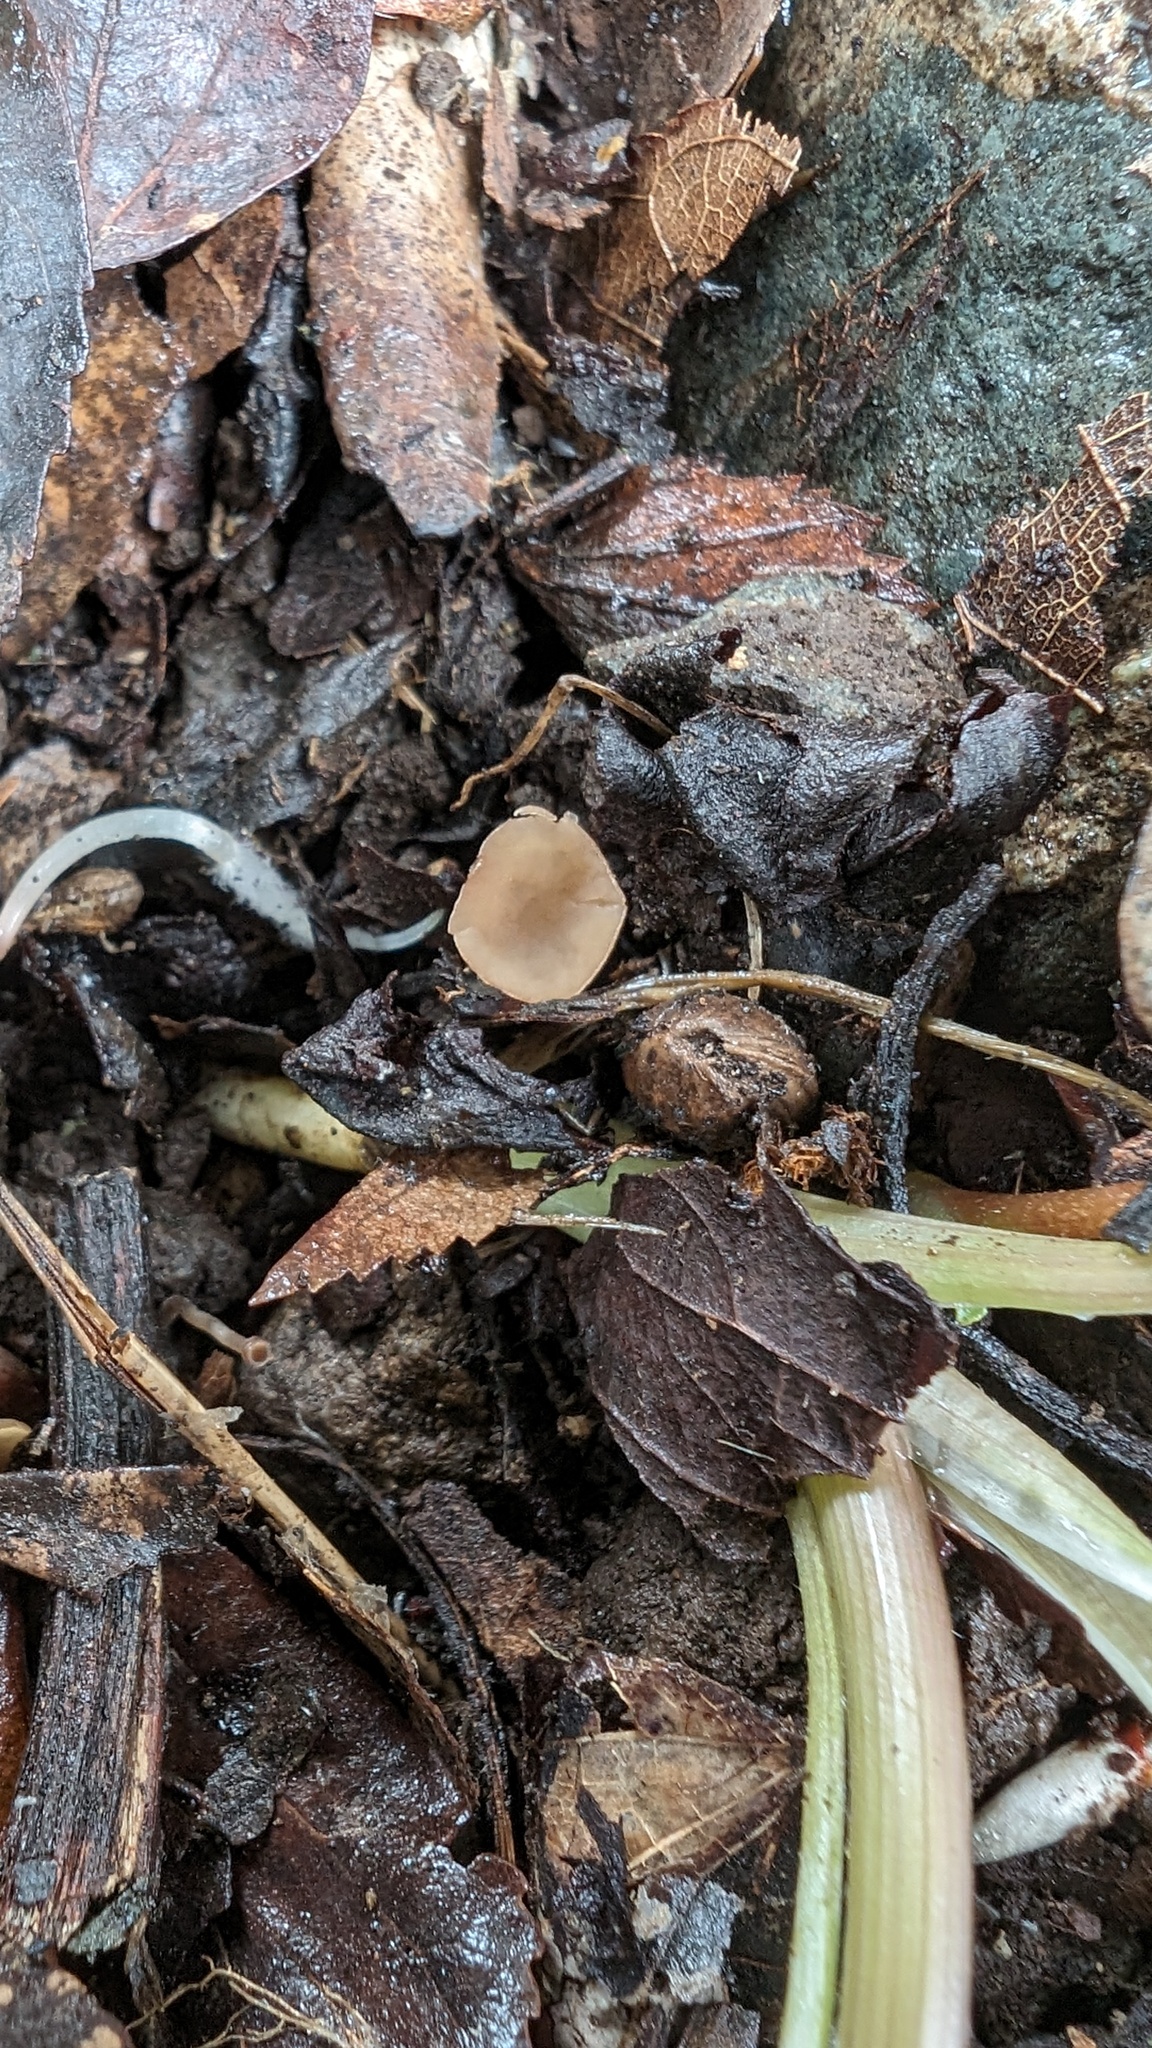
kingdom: Fungi
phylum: Ascomycota
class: Leotiomycetes
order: Helotiales
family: Sclerotiniaceae
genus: Ciborinia
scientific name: Ciborinia camelliae
